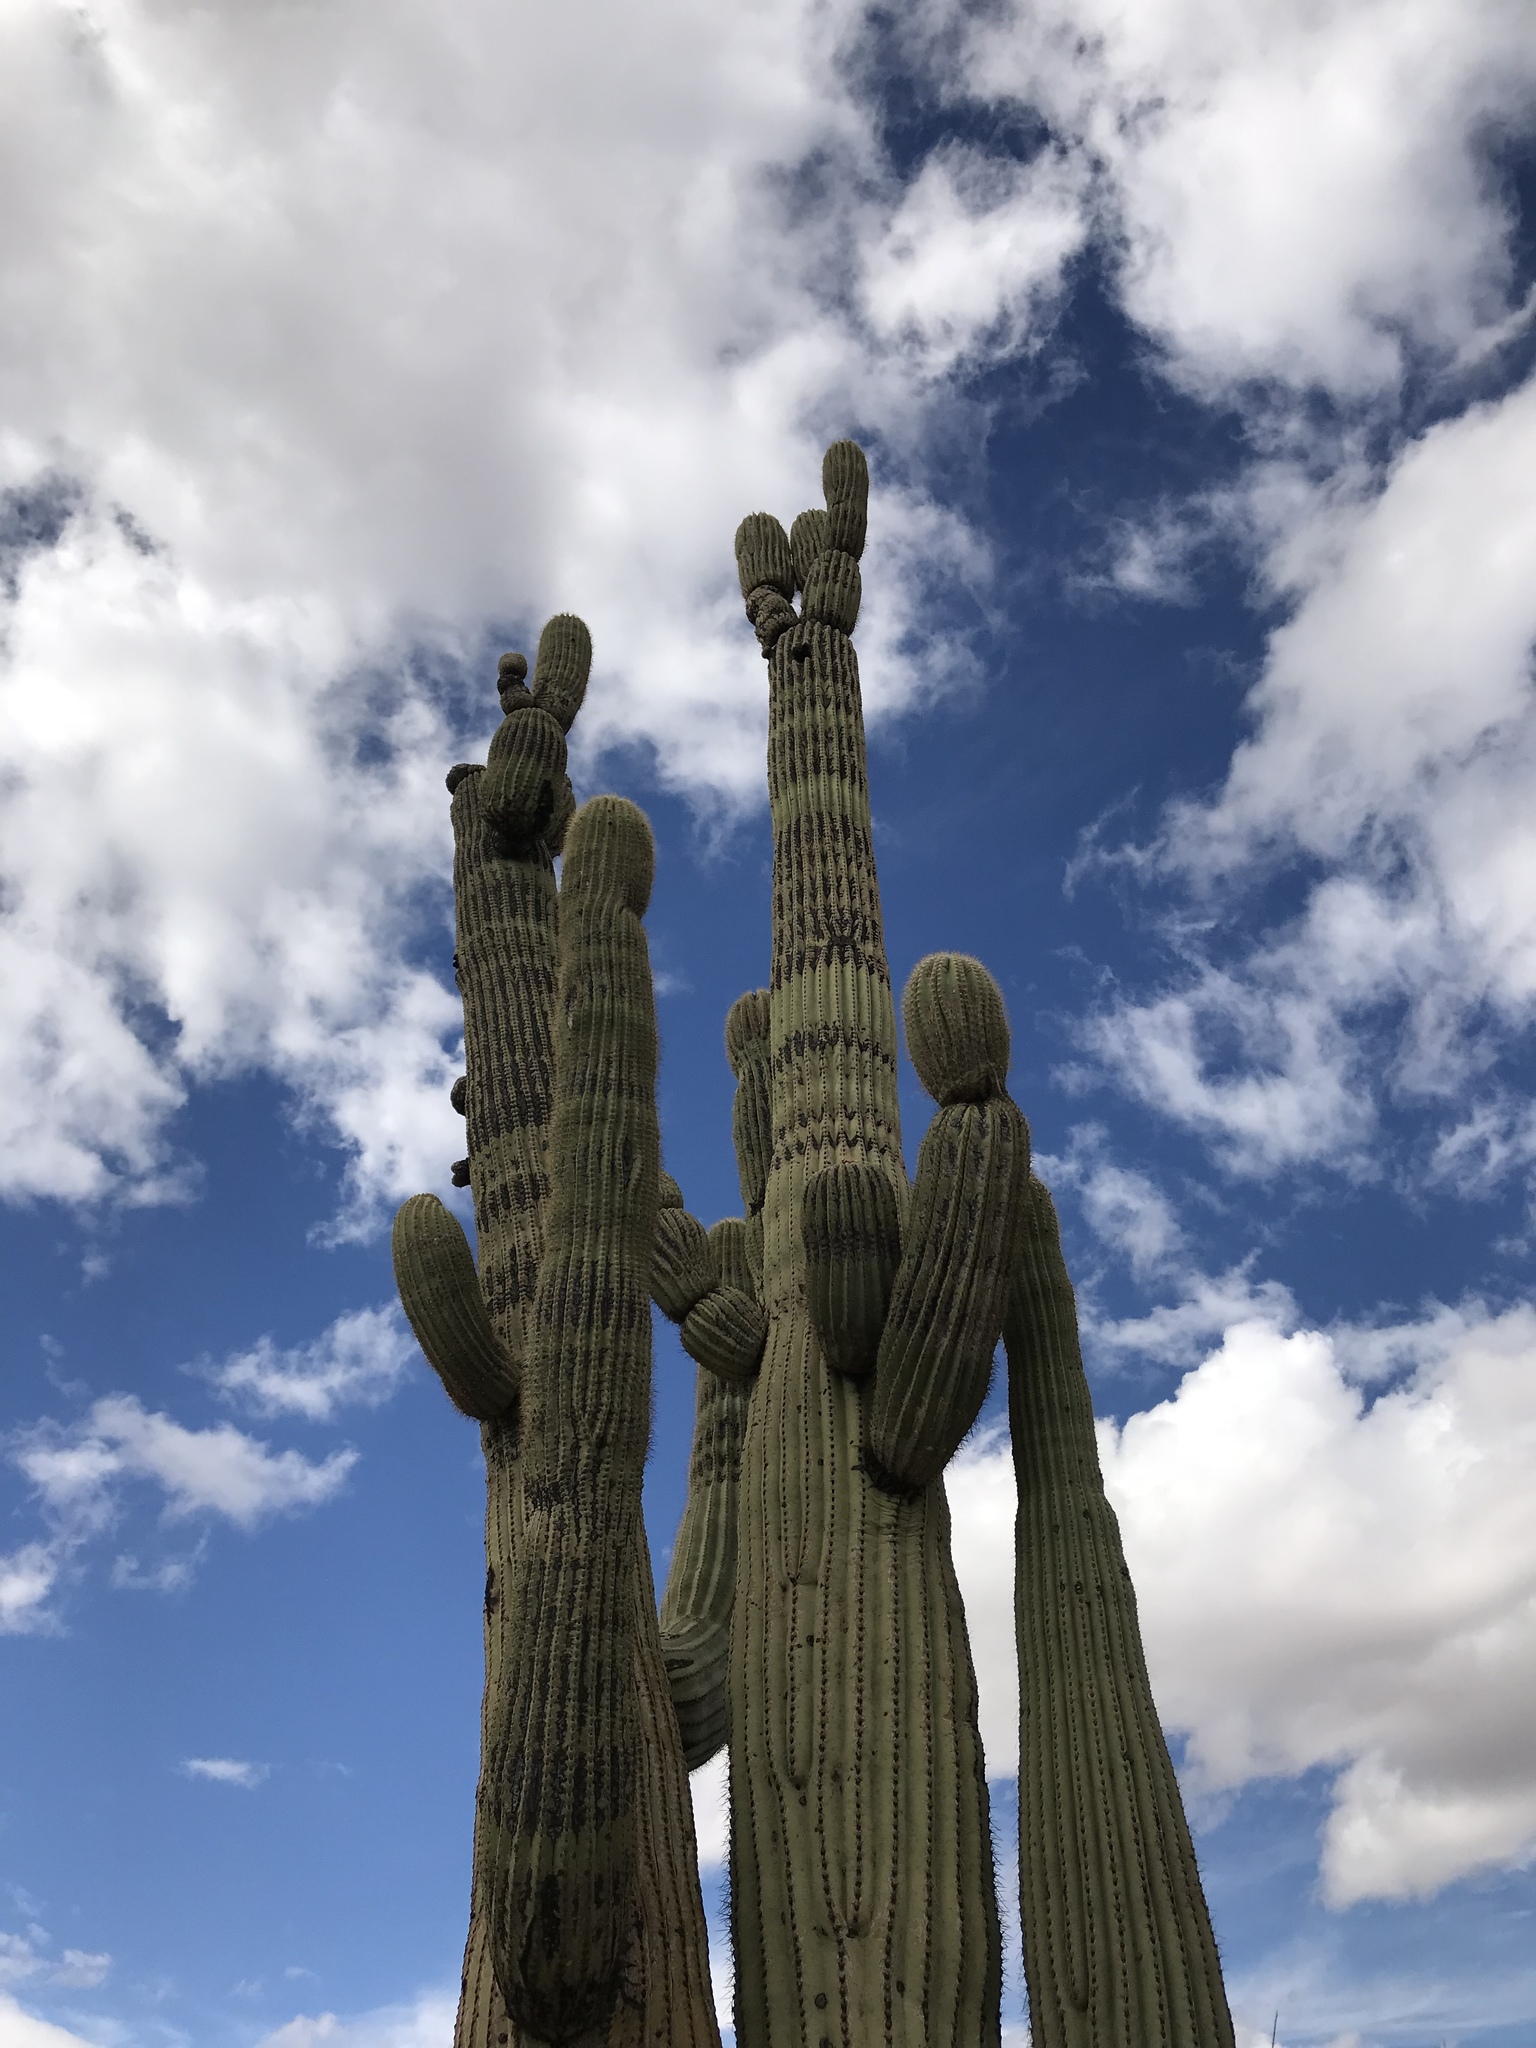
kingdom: Plantae
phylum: Tracheophyta
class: Magnoliopsida
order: Caryophyllales
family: Cactaceae
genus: Carnegiea
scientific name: Carnegiea gigantea
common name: Saguaro
